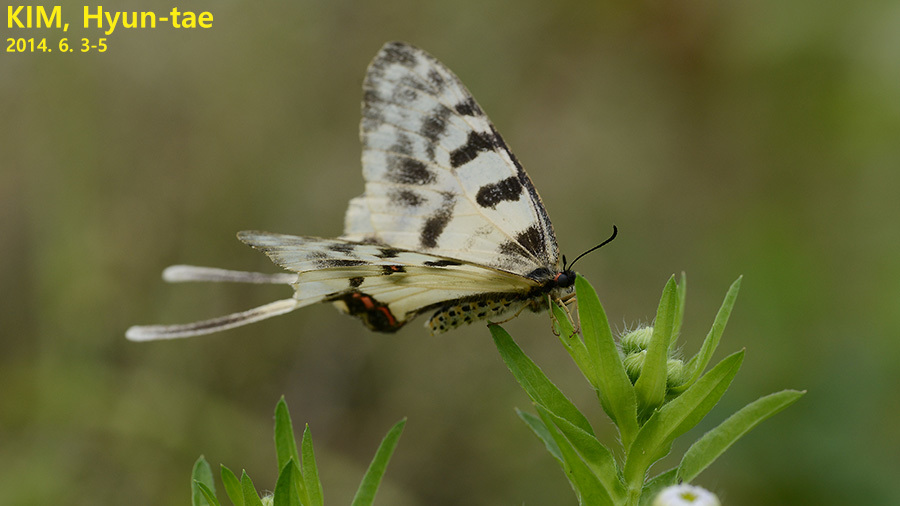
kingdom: Animalia
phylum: Arthropoda
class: Insecta
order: Lepidoptera
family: Papilionidae
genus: Sericinus
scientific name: Sericinus montela
